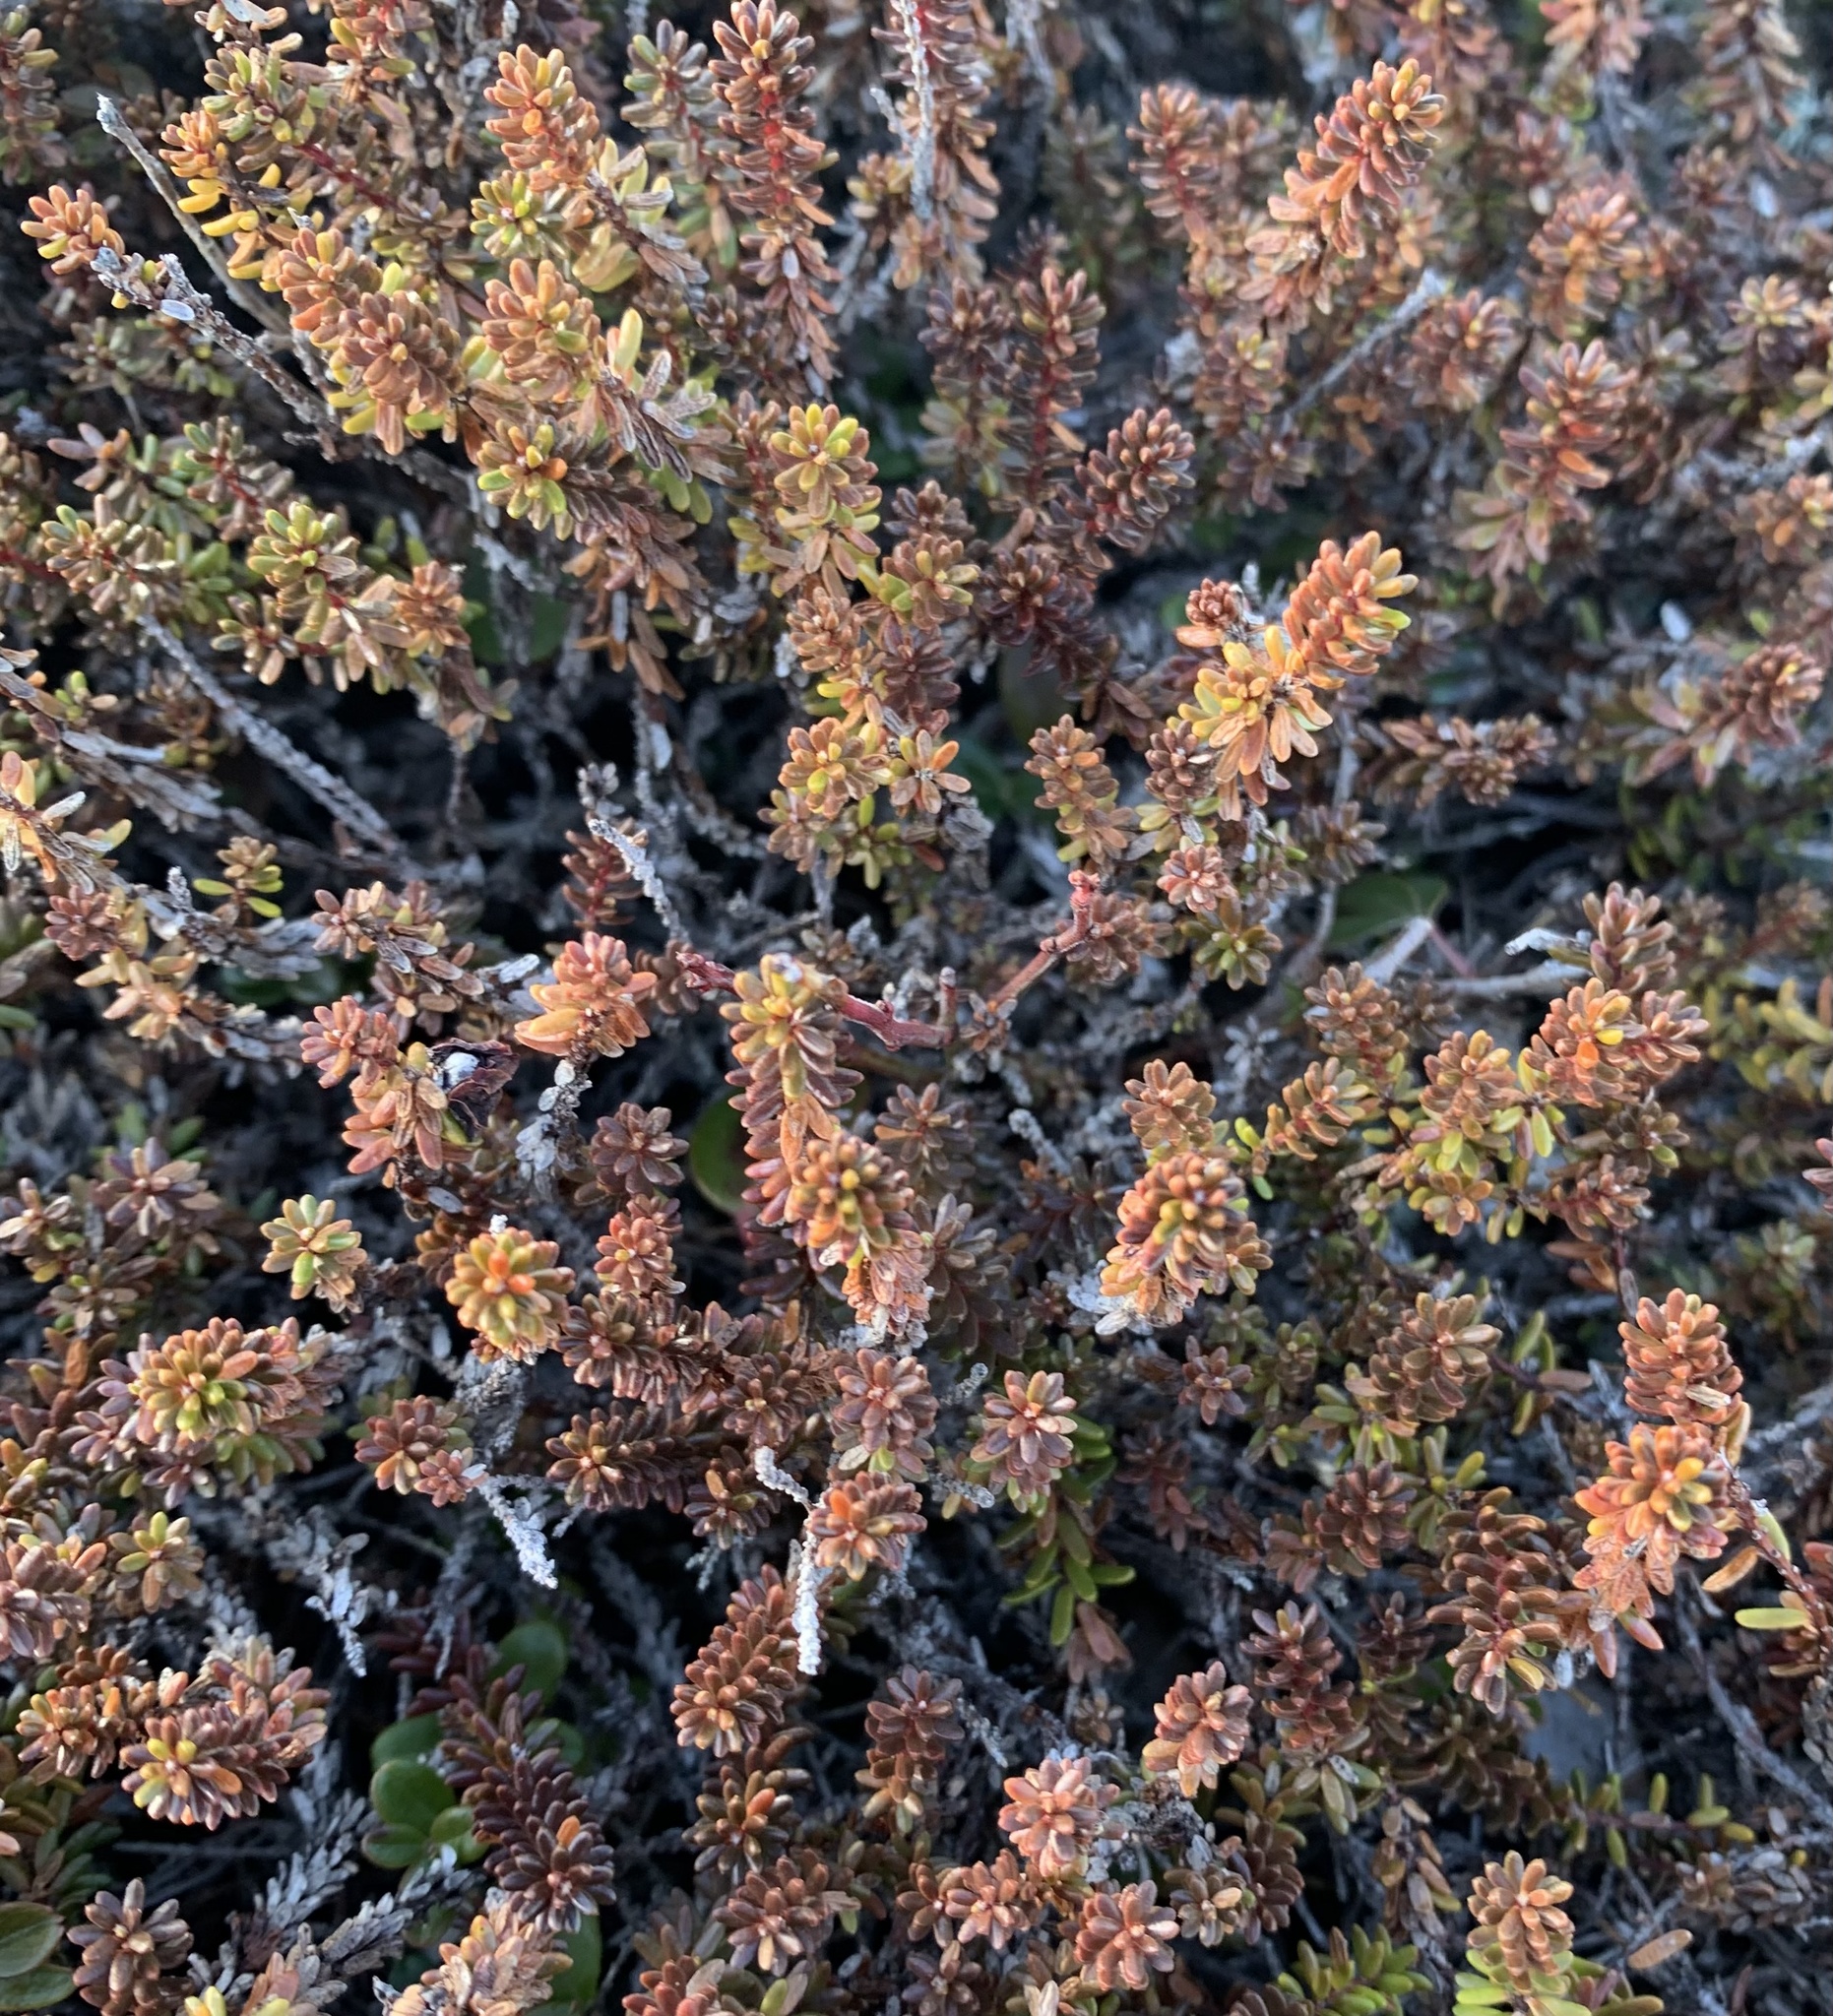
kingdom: Plantae
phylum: Tracheophyta
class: Magnoliopsida
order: Ericales
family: Ericaceae
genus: Empetrum
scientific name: Empetrum nigrum
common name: Black crowberry
